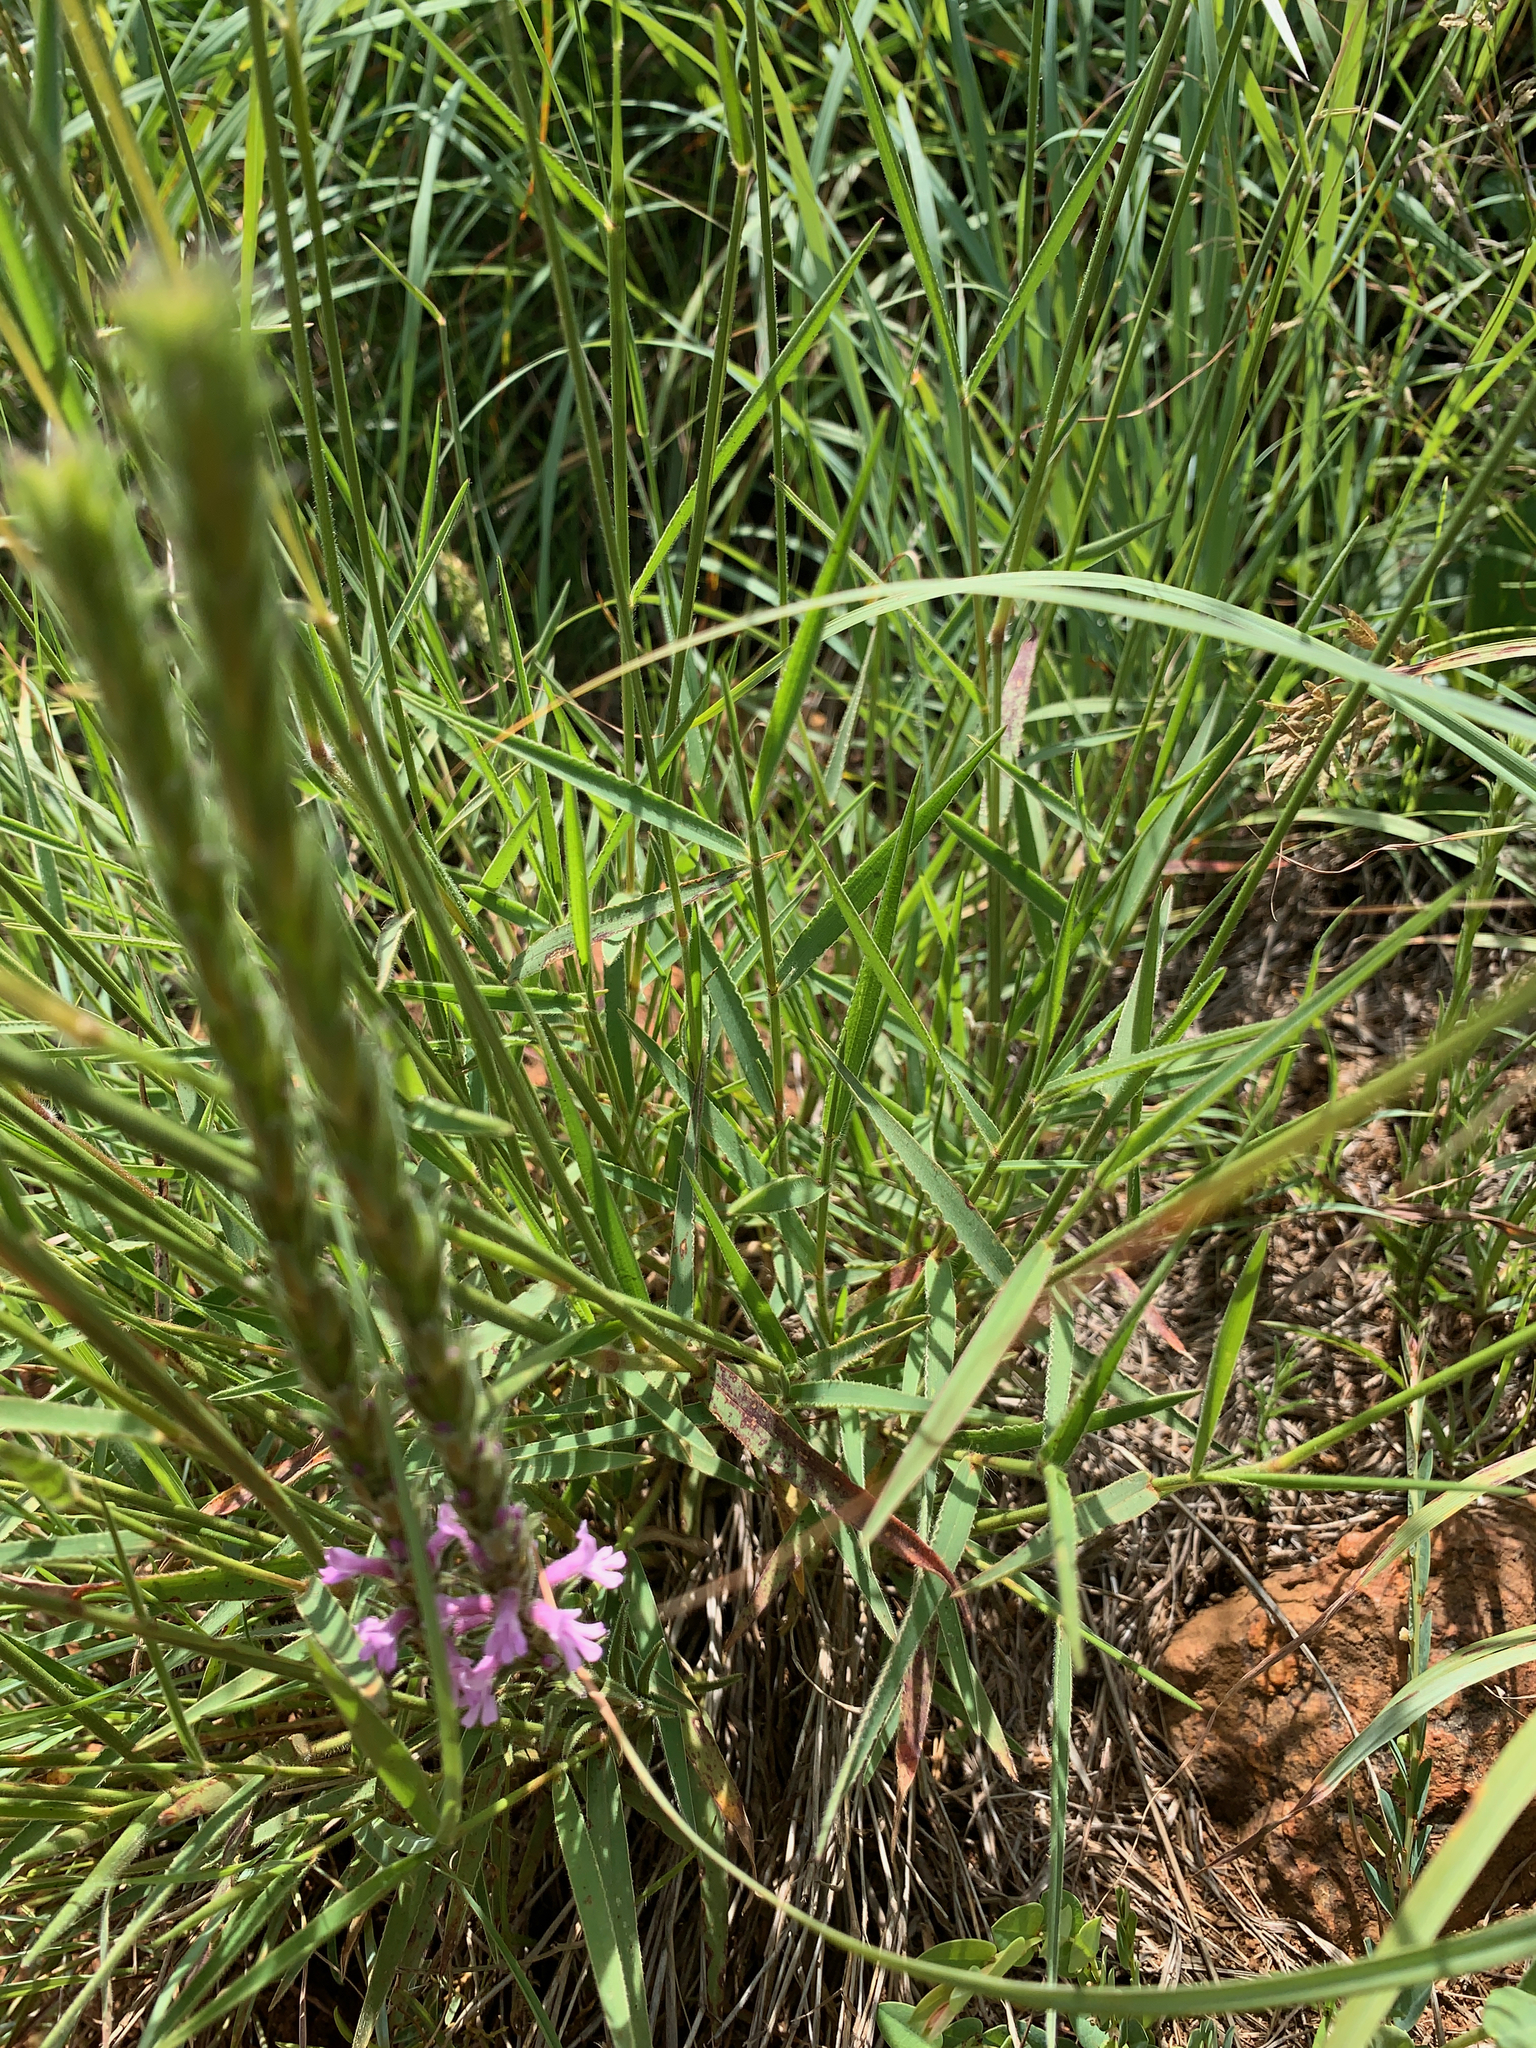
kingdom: Plantae
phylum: Tracheophyta
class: Magnoliopsida
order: Lamiales
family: Orobanchaceae
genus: Striga
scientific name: Striga bilabiata
